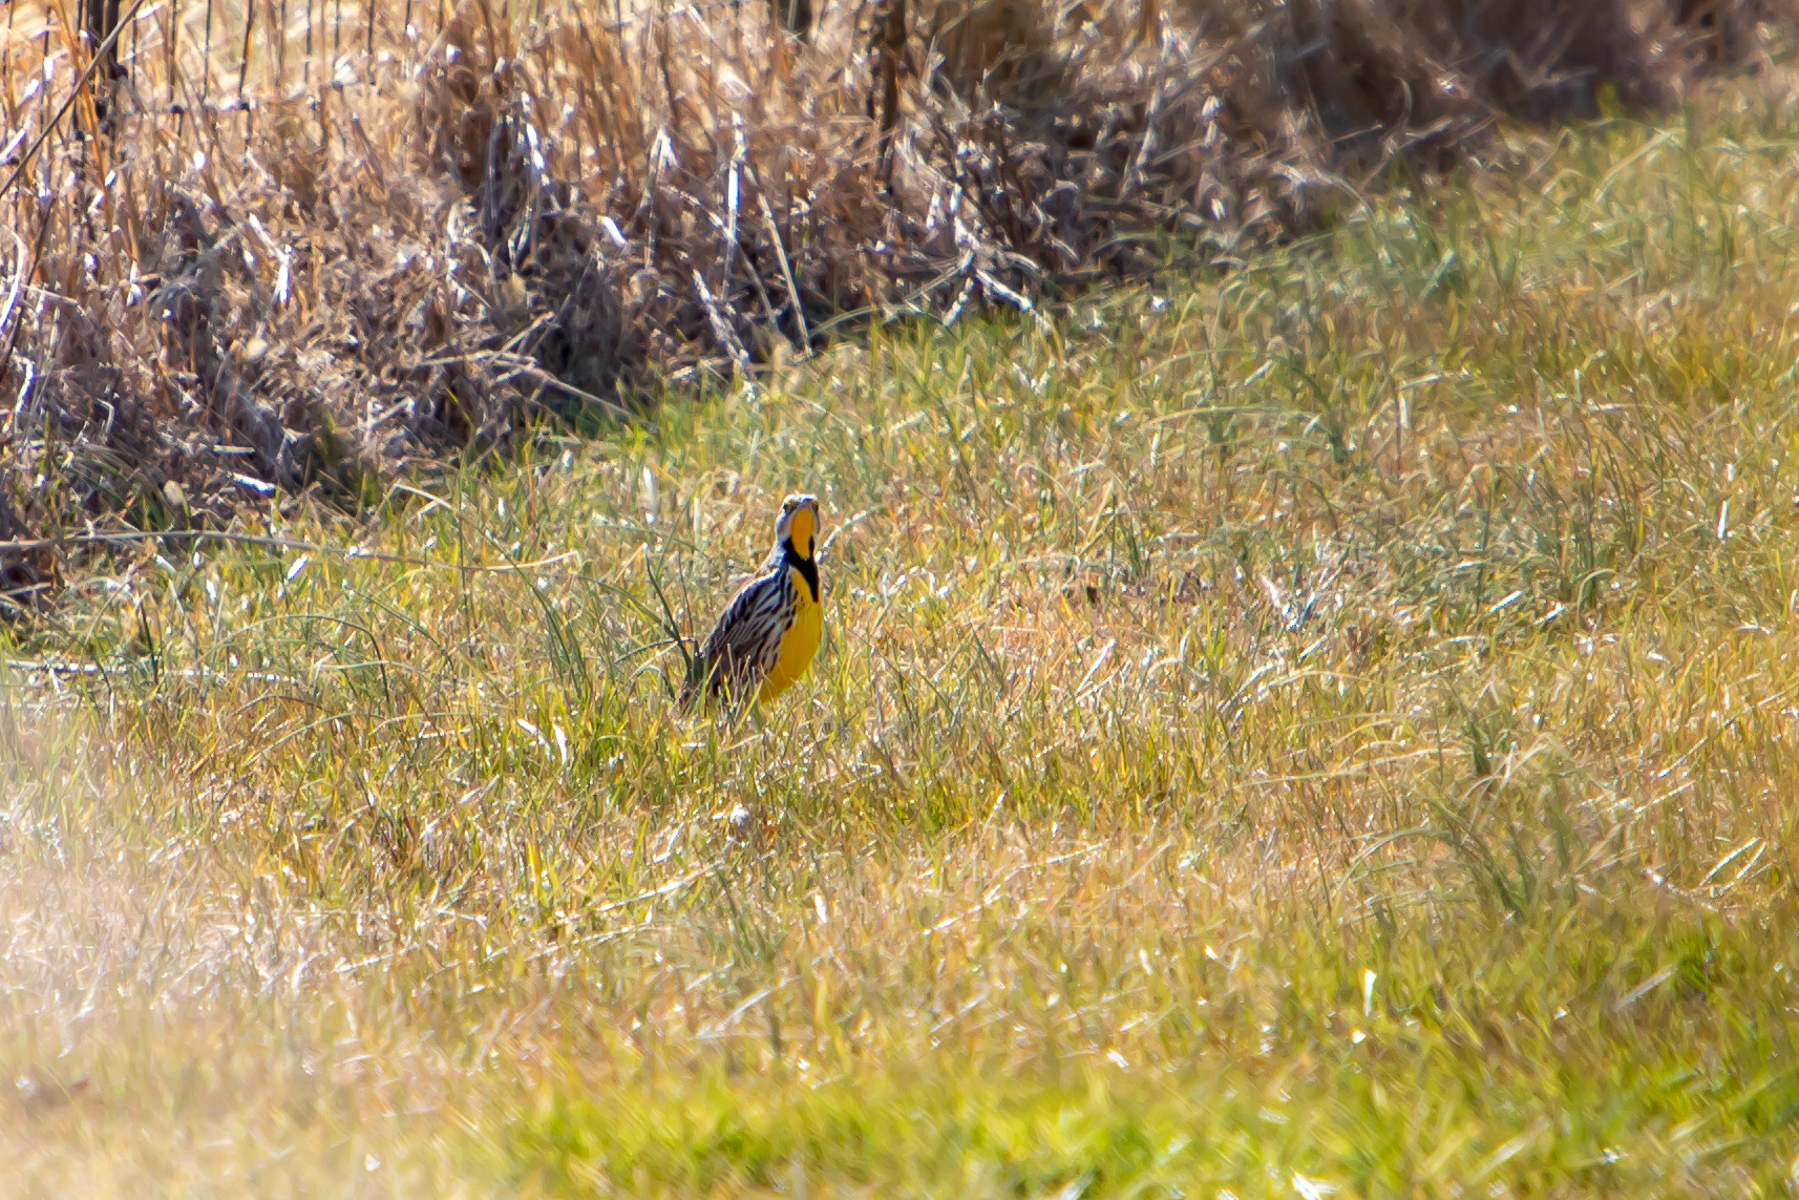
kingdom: Animalia
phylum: Chordata
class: Aves
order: Passeriformes
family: Icteridae
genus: Sturnella
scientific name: Sturnella magna
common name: Eastern meadowlark
